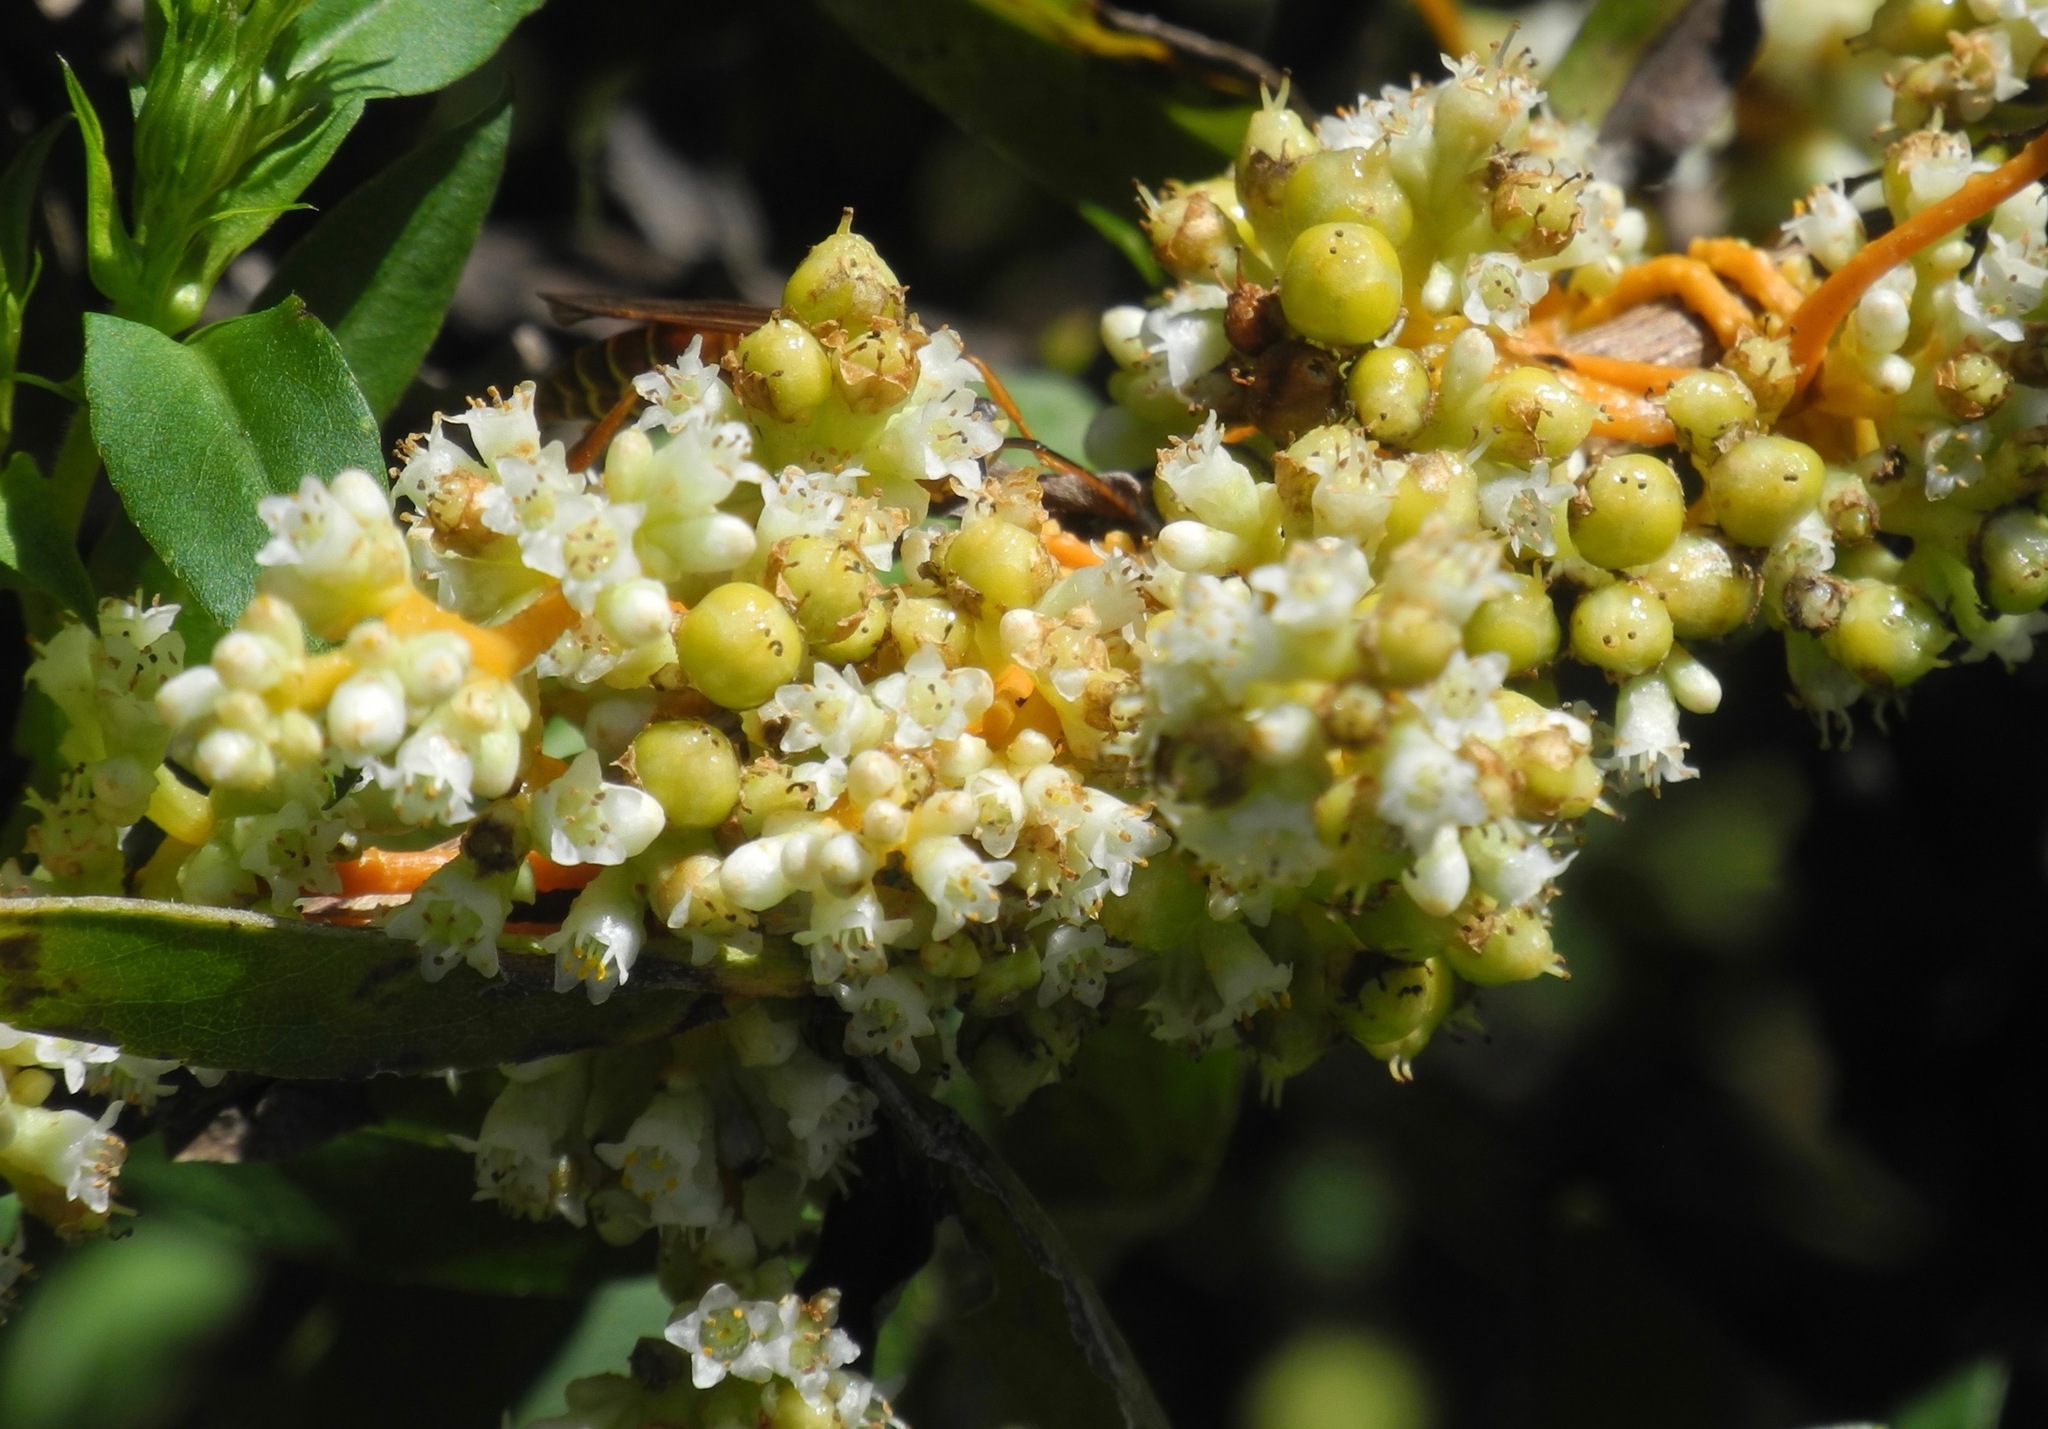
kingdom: Plantae
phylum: Tracheophyta
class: Magnoliopsida
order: Solanales
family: Convolvulaceae
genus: Cuscuta
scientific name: Cuscuta gronovii
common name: Common dodder
